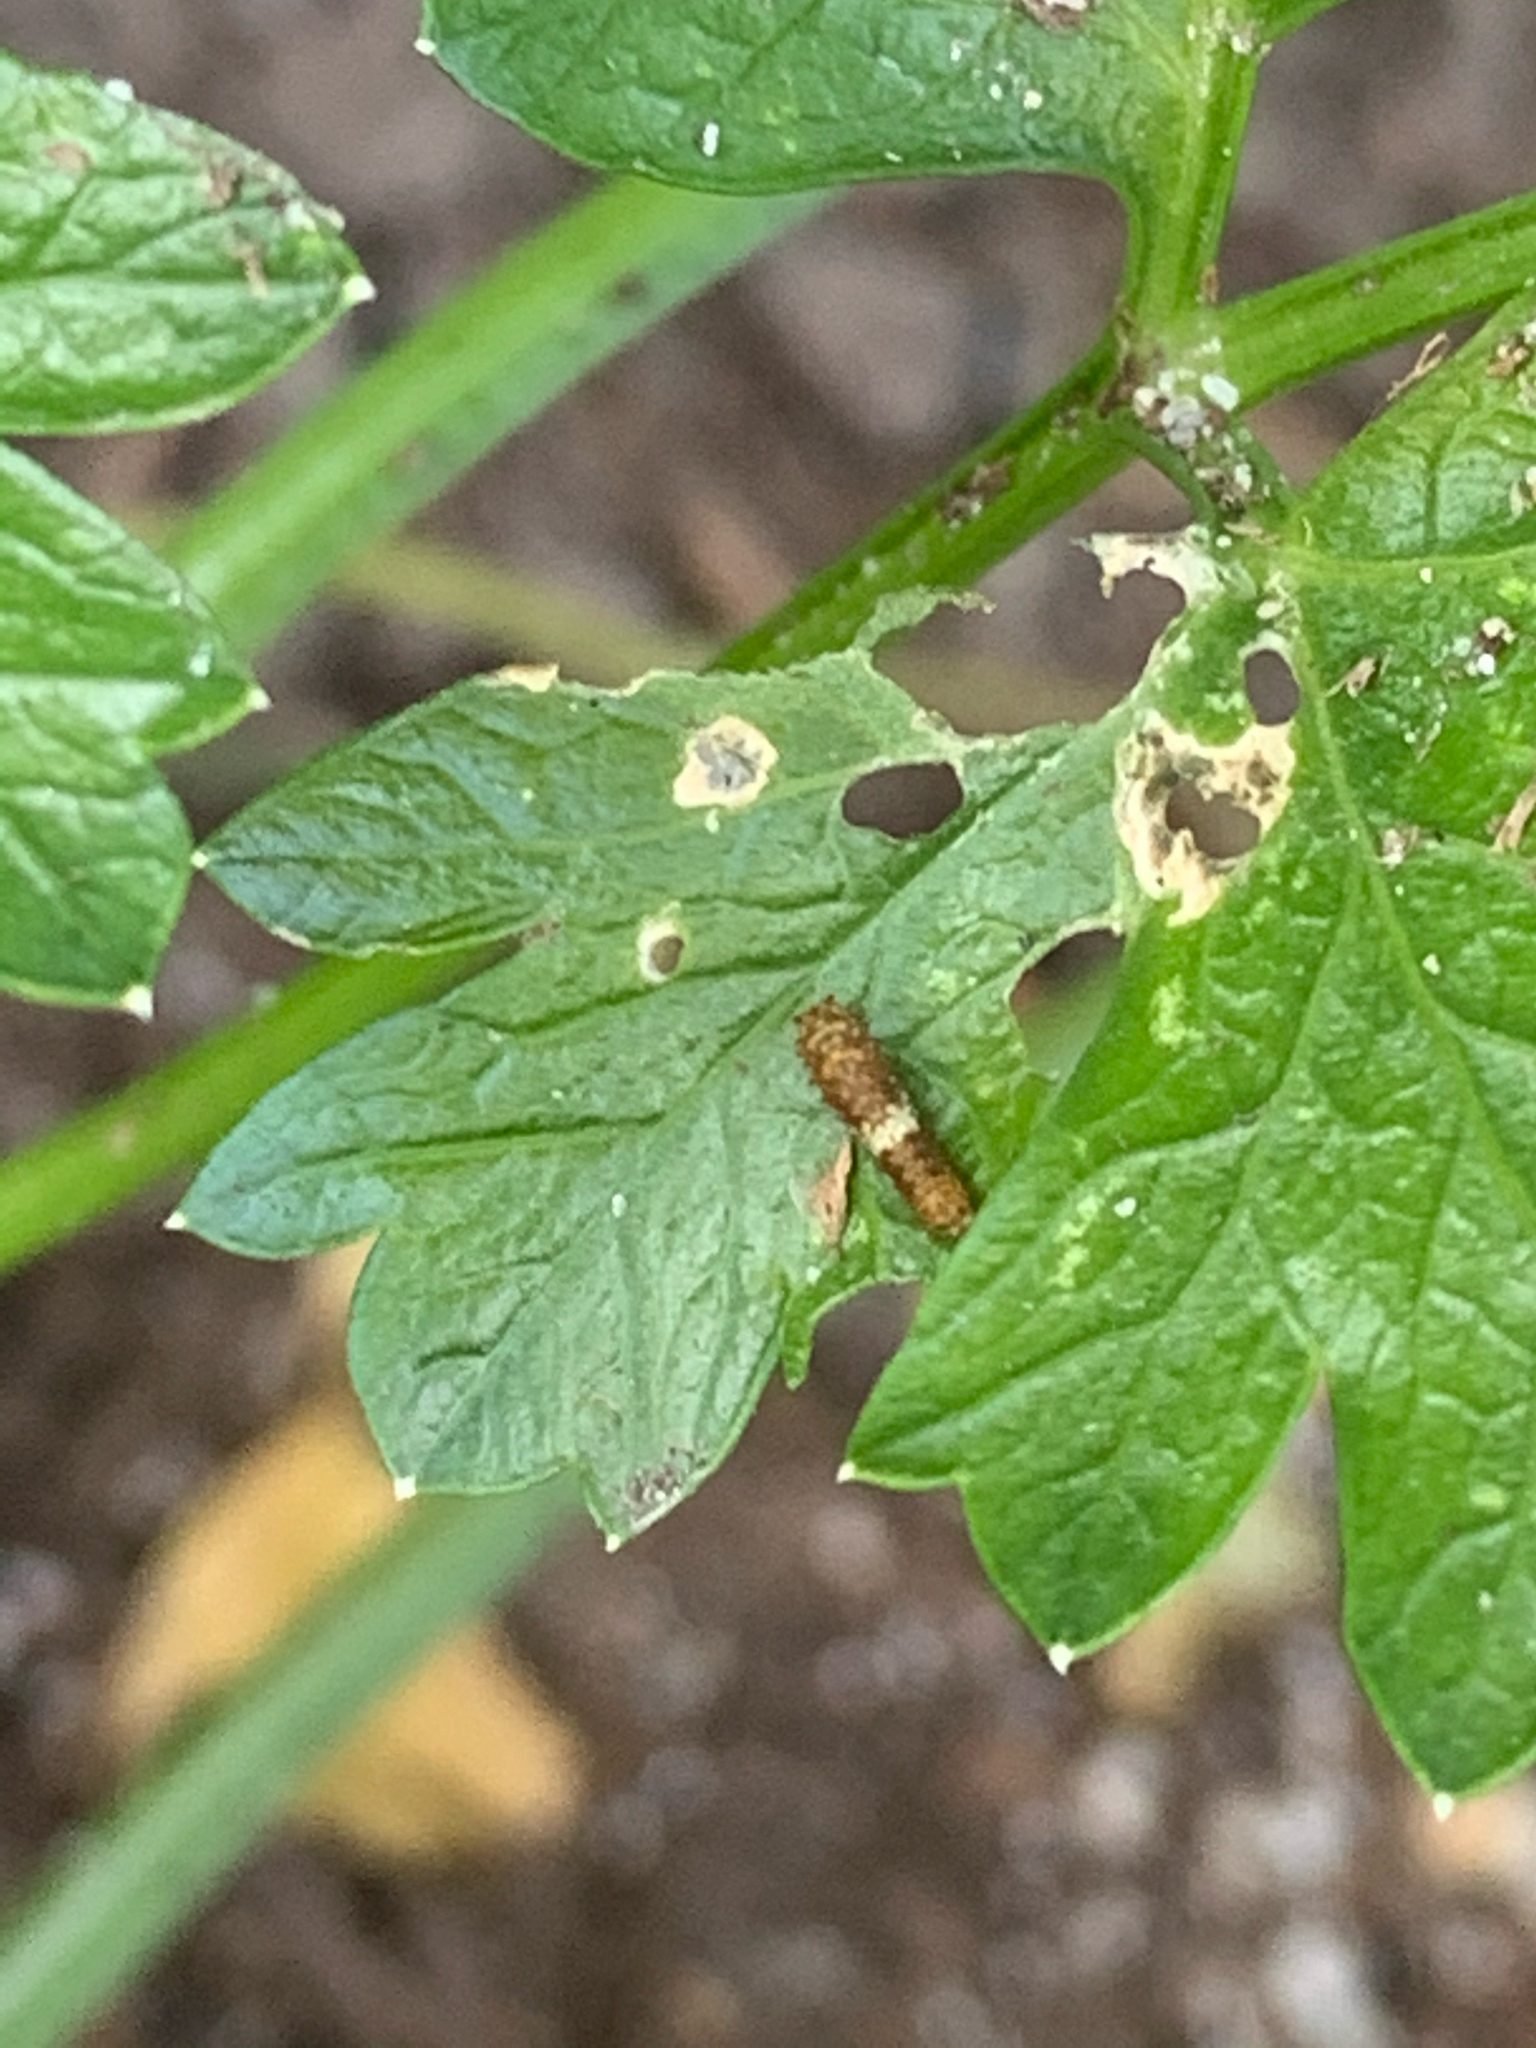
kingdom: Animalia
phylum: Arthropoda
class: Insecta
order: Lepidoptera
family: Papilionidae
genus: Papilio
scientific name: Papilio polyxenes
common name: Black swallowtail
